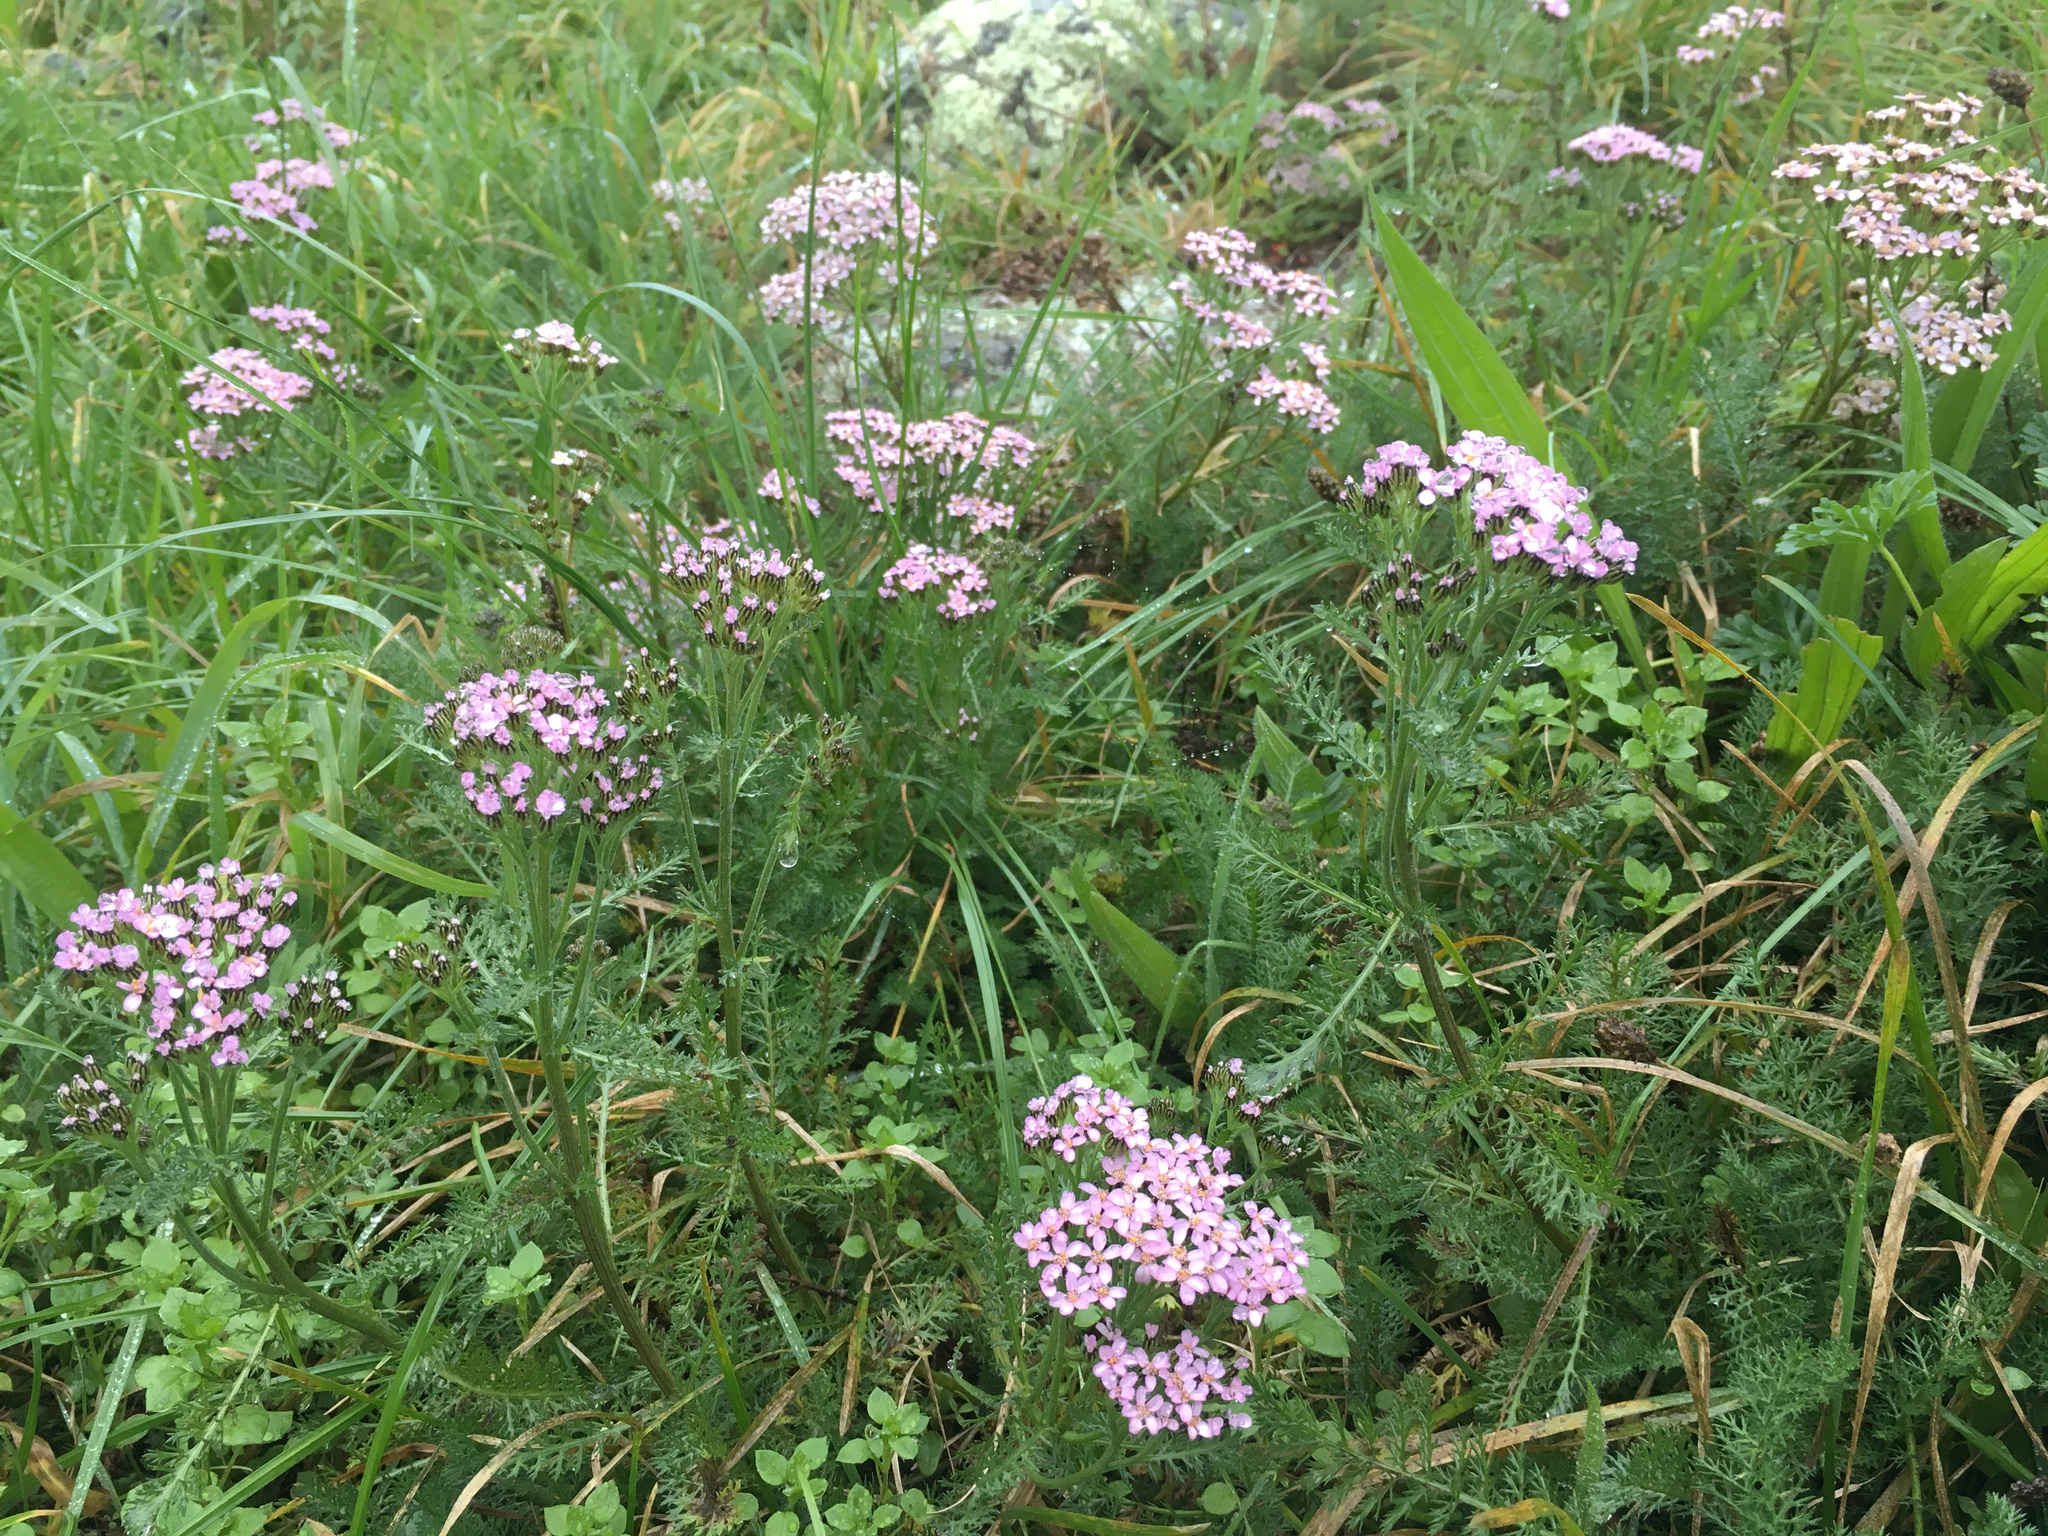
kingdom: Plantae
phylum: Tracheophyta
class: Magnoliopsida
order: Asterales
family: Asteraceae
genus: Achillea
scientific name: Achillea millefolium
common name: Yarrow
